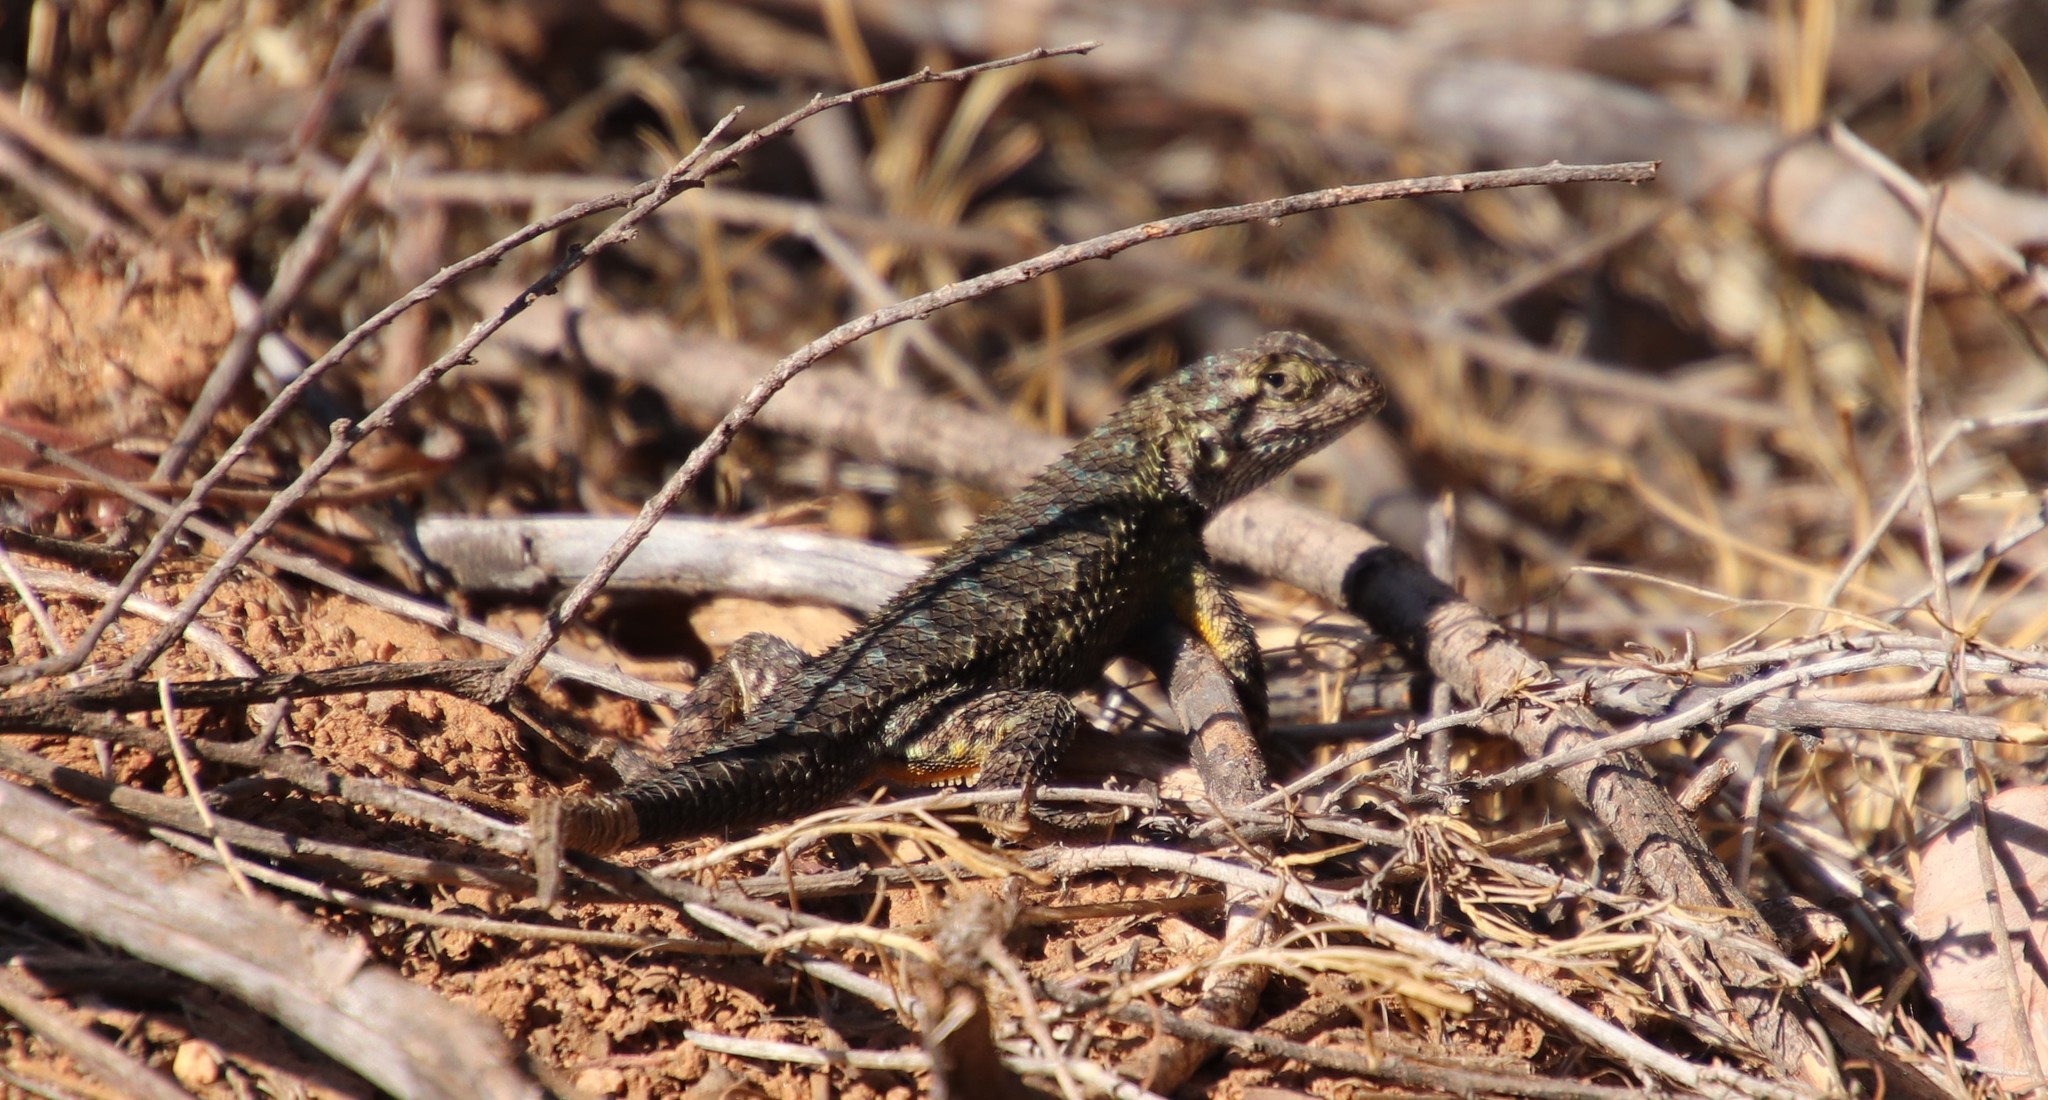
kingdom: Animalia
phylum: Chordata
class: Squamata
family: Phrynosomatidae
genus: Sceloporus
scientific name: Sceloporus occidentalis
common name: Western fence lizard
